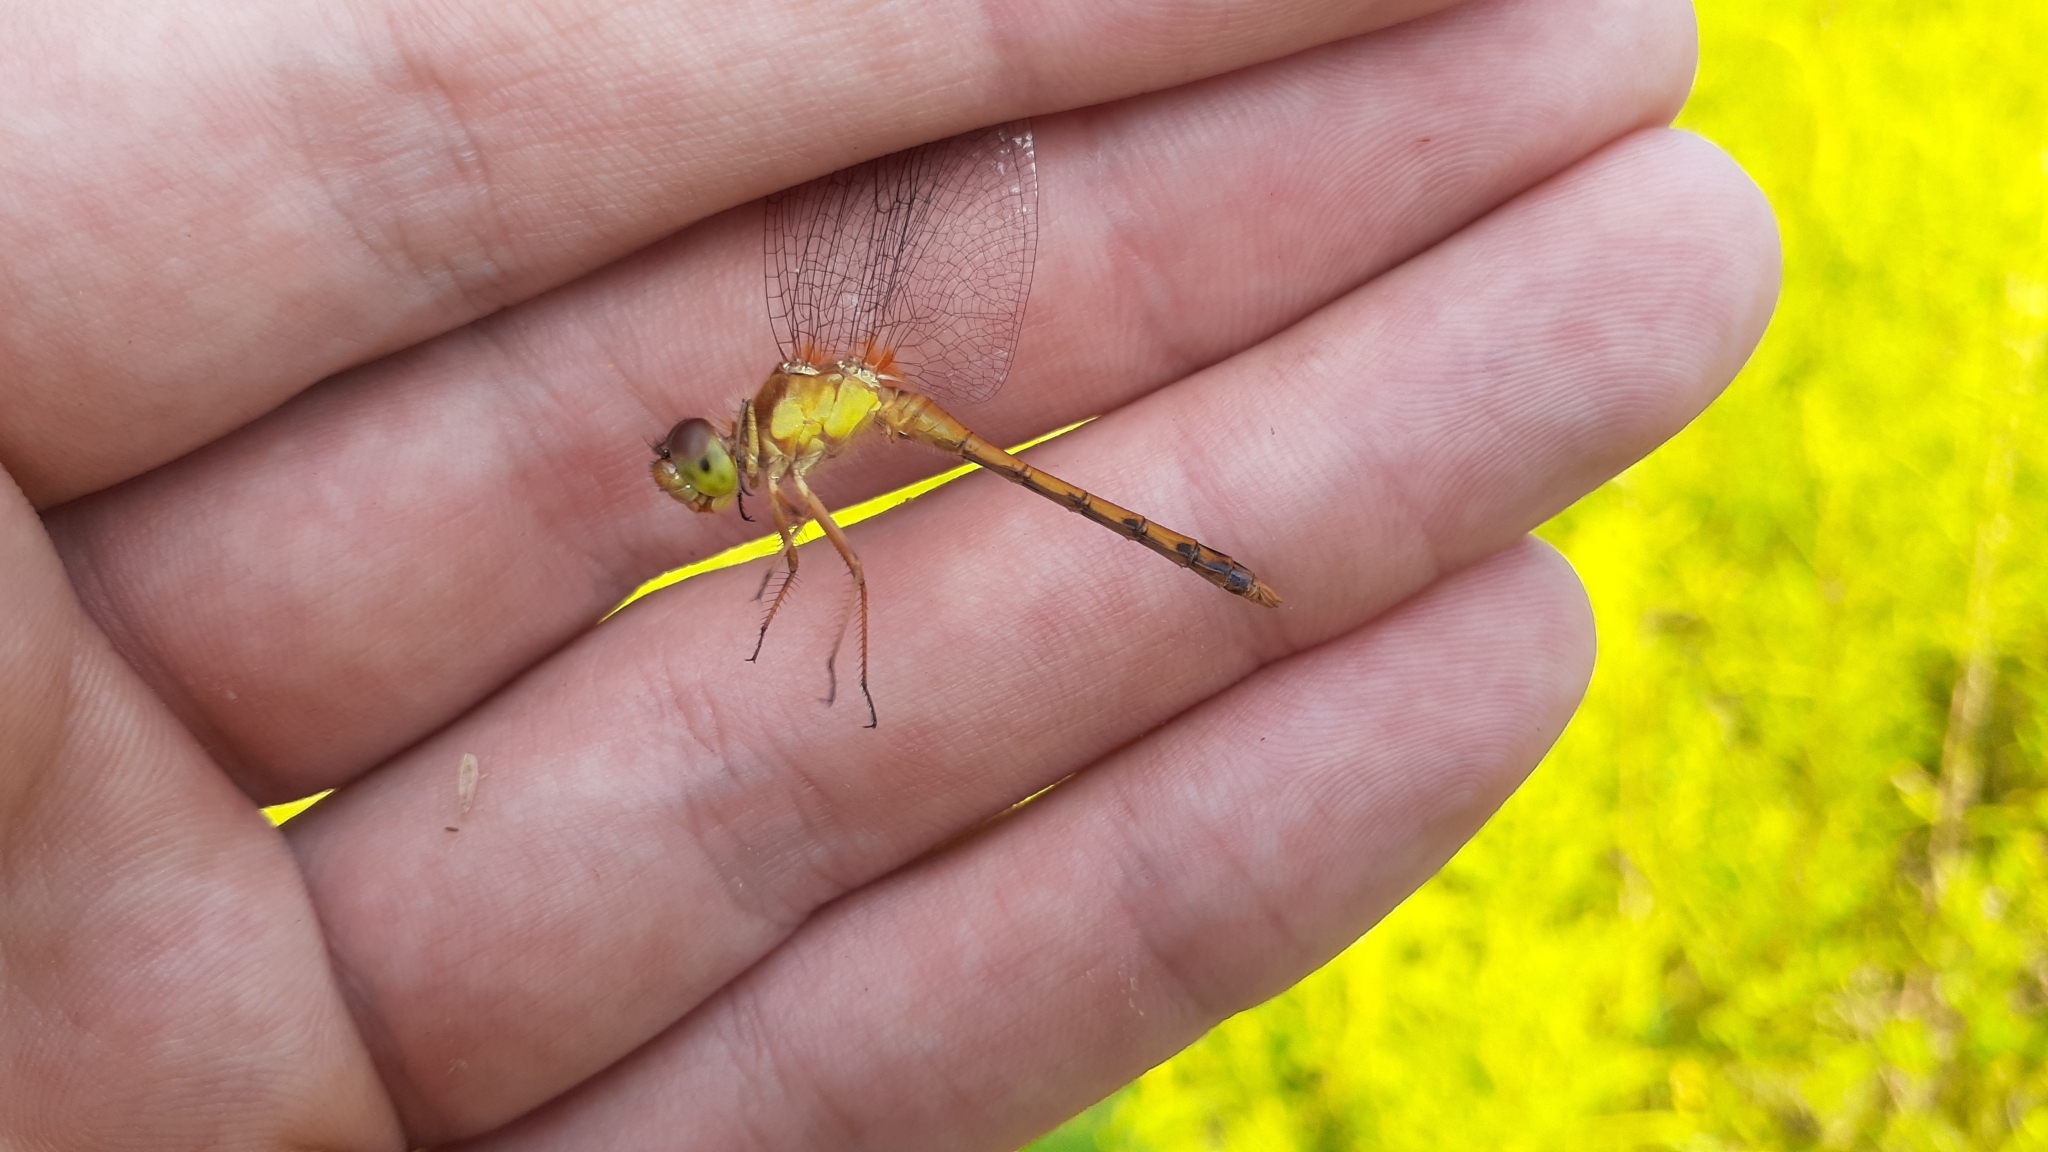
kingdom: Animalia
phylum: Arthropoda
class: Insecta
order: Odonata
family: Libellulidae
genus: Sympetrum
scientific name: Sympetrum vicinum
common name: Autumn meadowhawk
